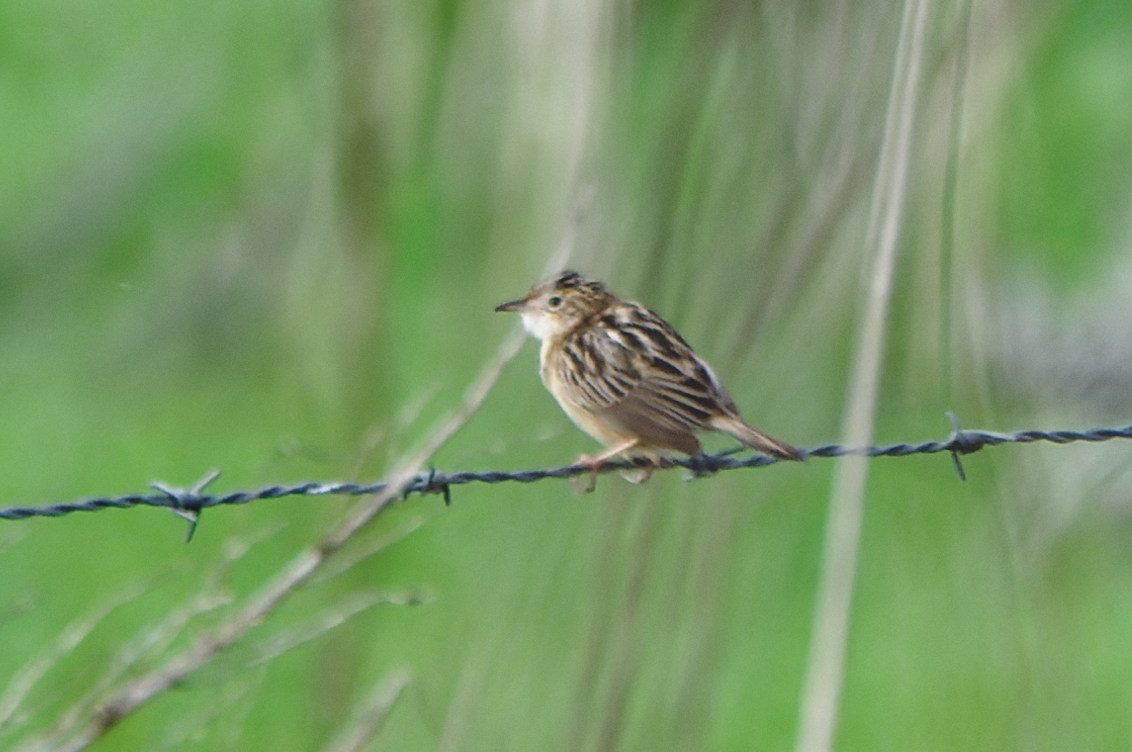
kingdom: Animalia
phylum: Chordata
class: Aves
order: Passeriformes
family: Cisticolidae
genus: Cisticola
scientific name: Cisticola juncidis
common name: Zitting cisticola
